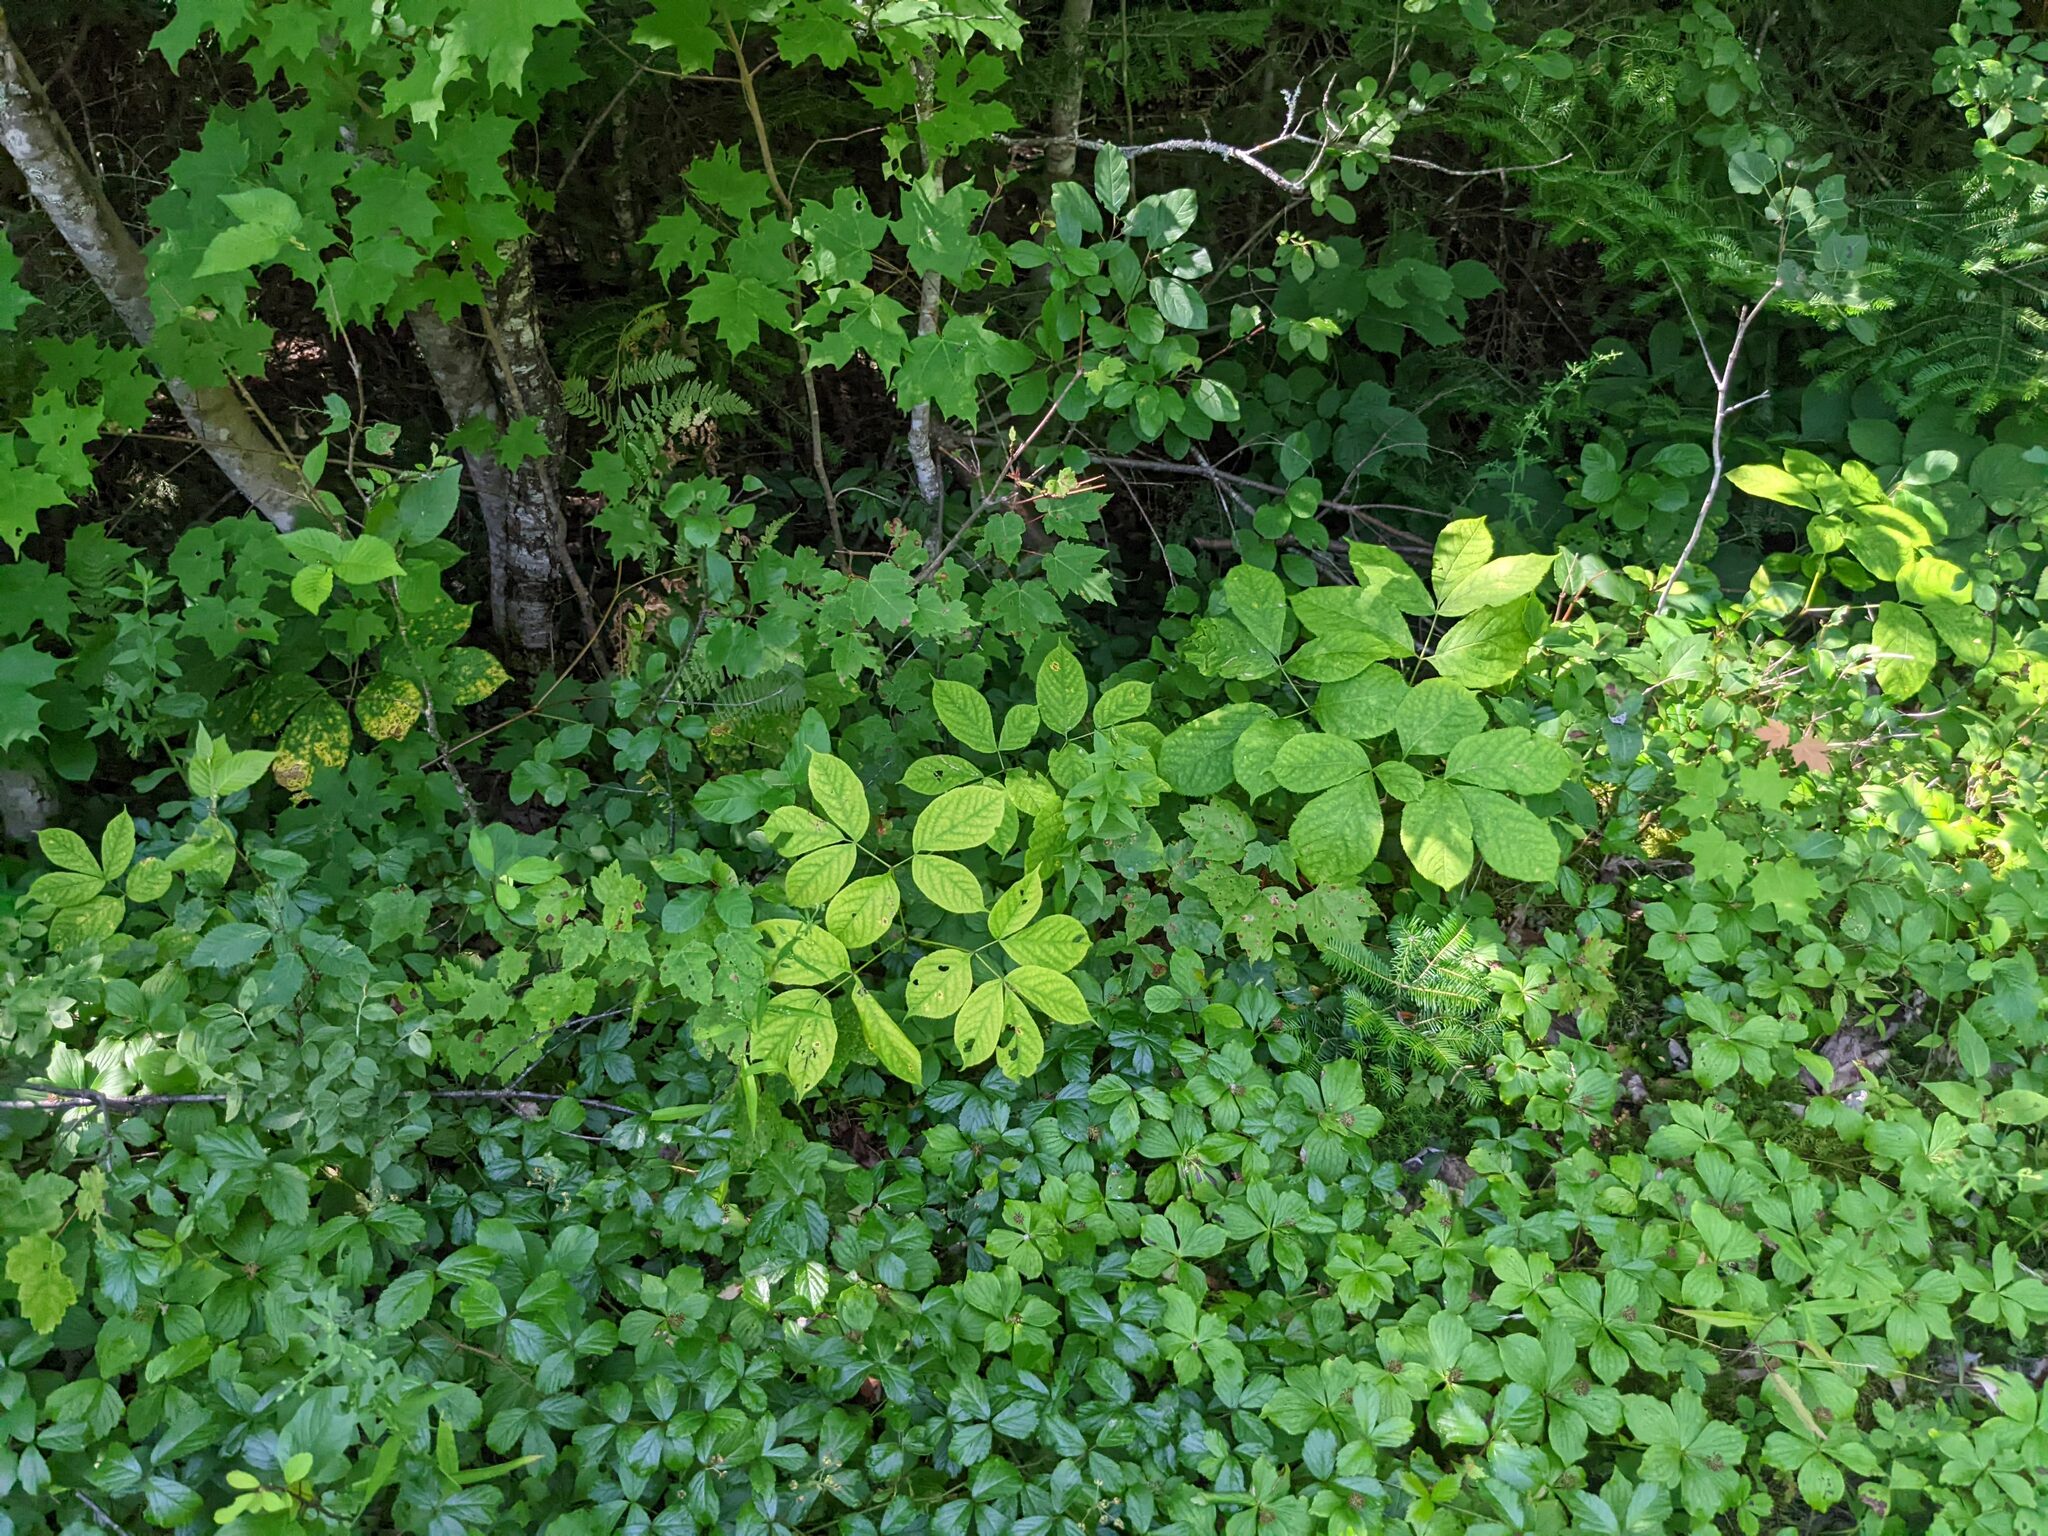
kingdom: Plantae
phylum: Tracheophyta
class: Magnoliopsida
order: Apiales
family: Araliaceae
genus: Aralia
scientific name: Aralia nudicaulis
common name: Wild sarsaparilla
